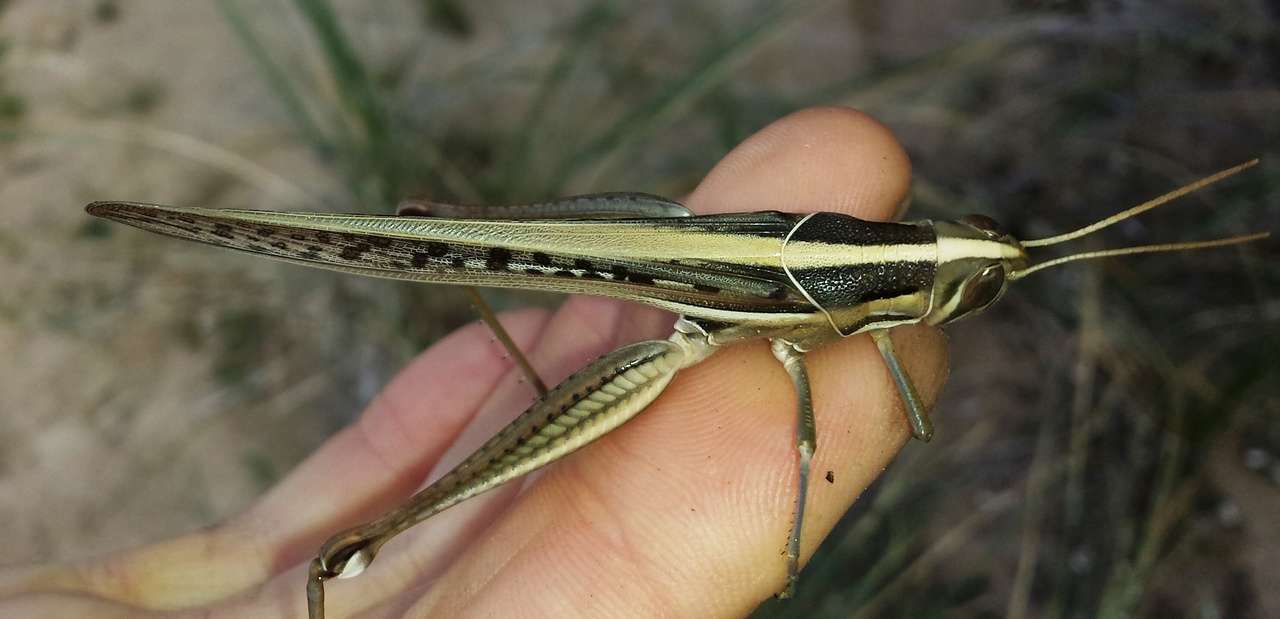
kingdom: Animalia
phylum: Arthropoda
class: Insecta
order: Orthoptera
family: Acrididae
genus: Austracris
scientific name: Austracris guttulosa
